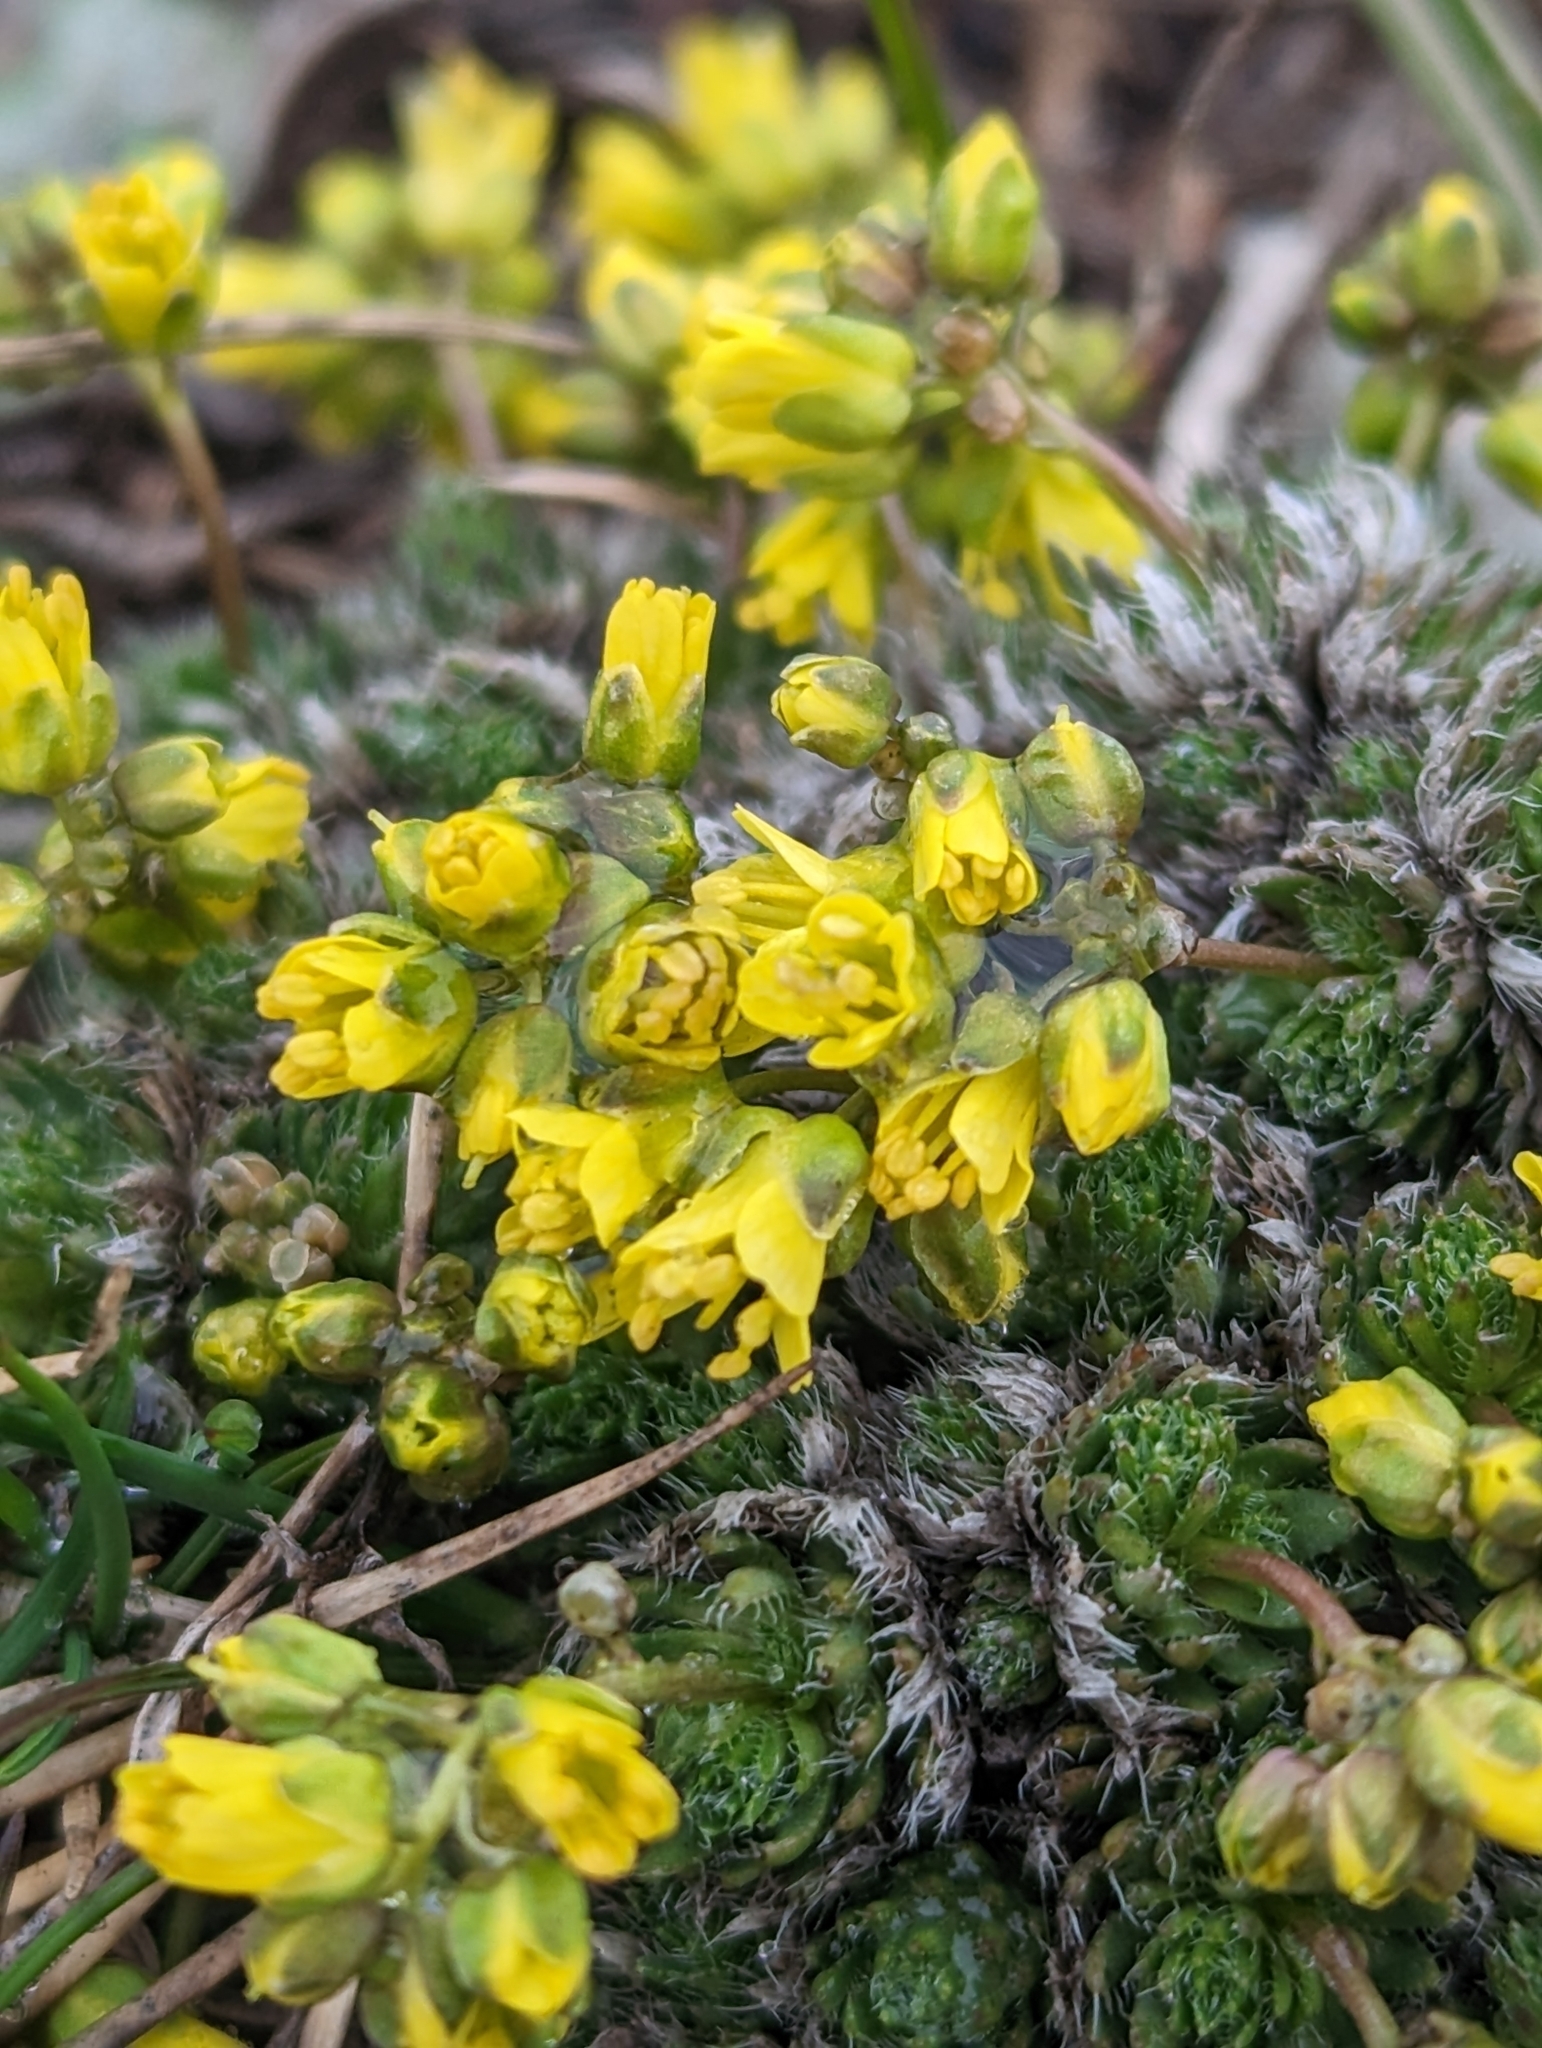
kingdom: Plantae
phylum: Tracheophyta
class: Magnoliopsida
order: Brassicales
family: Brassicaceae
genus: Draba
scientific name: Draba aizoides
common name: Yellow whitlowgrass
